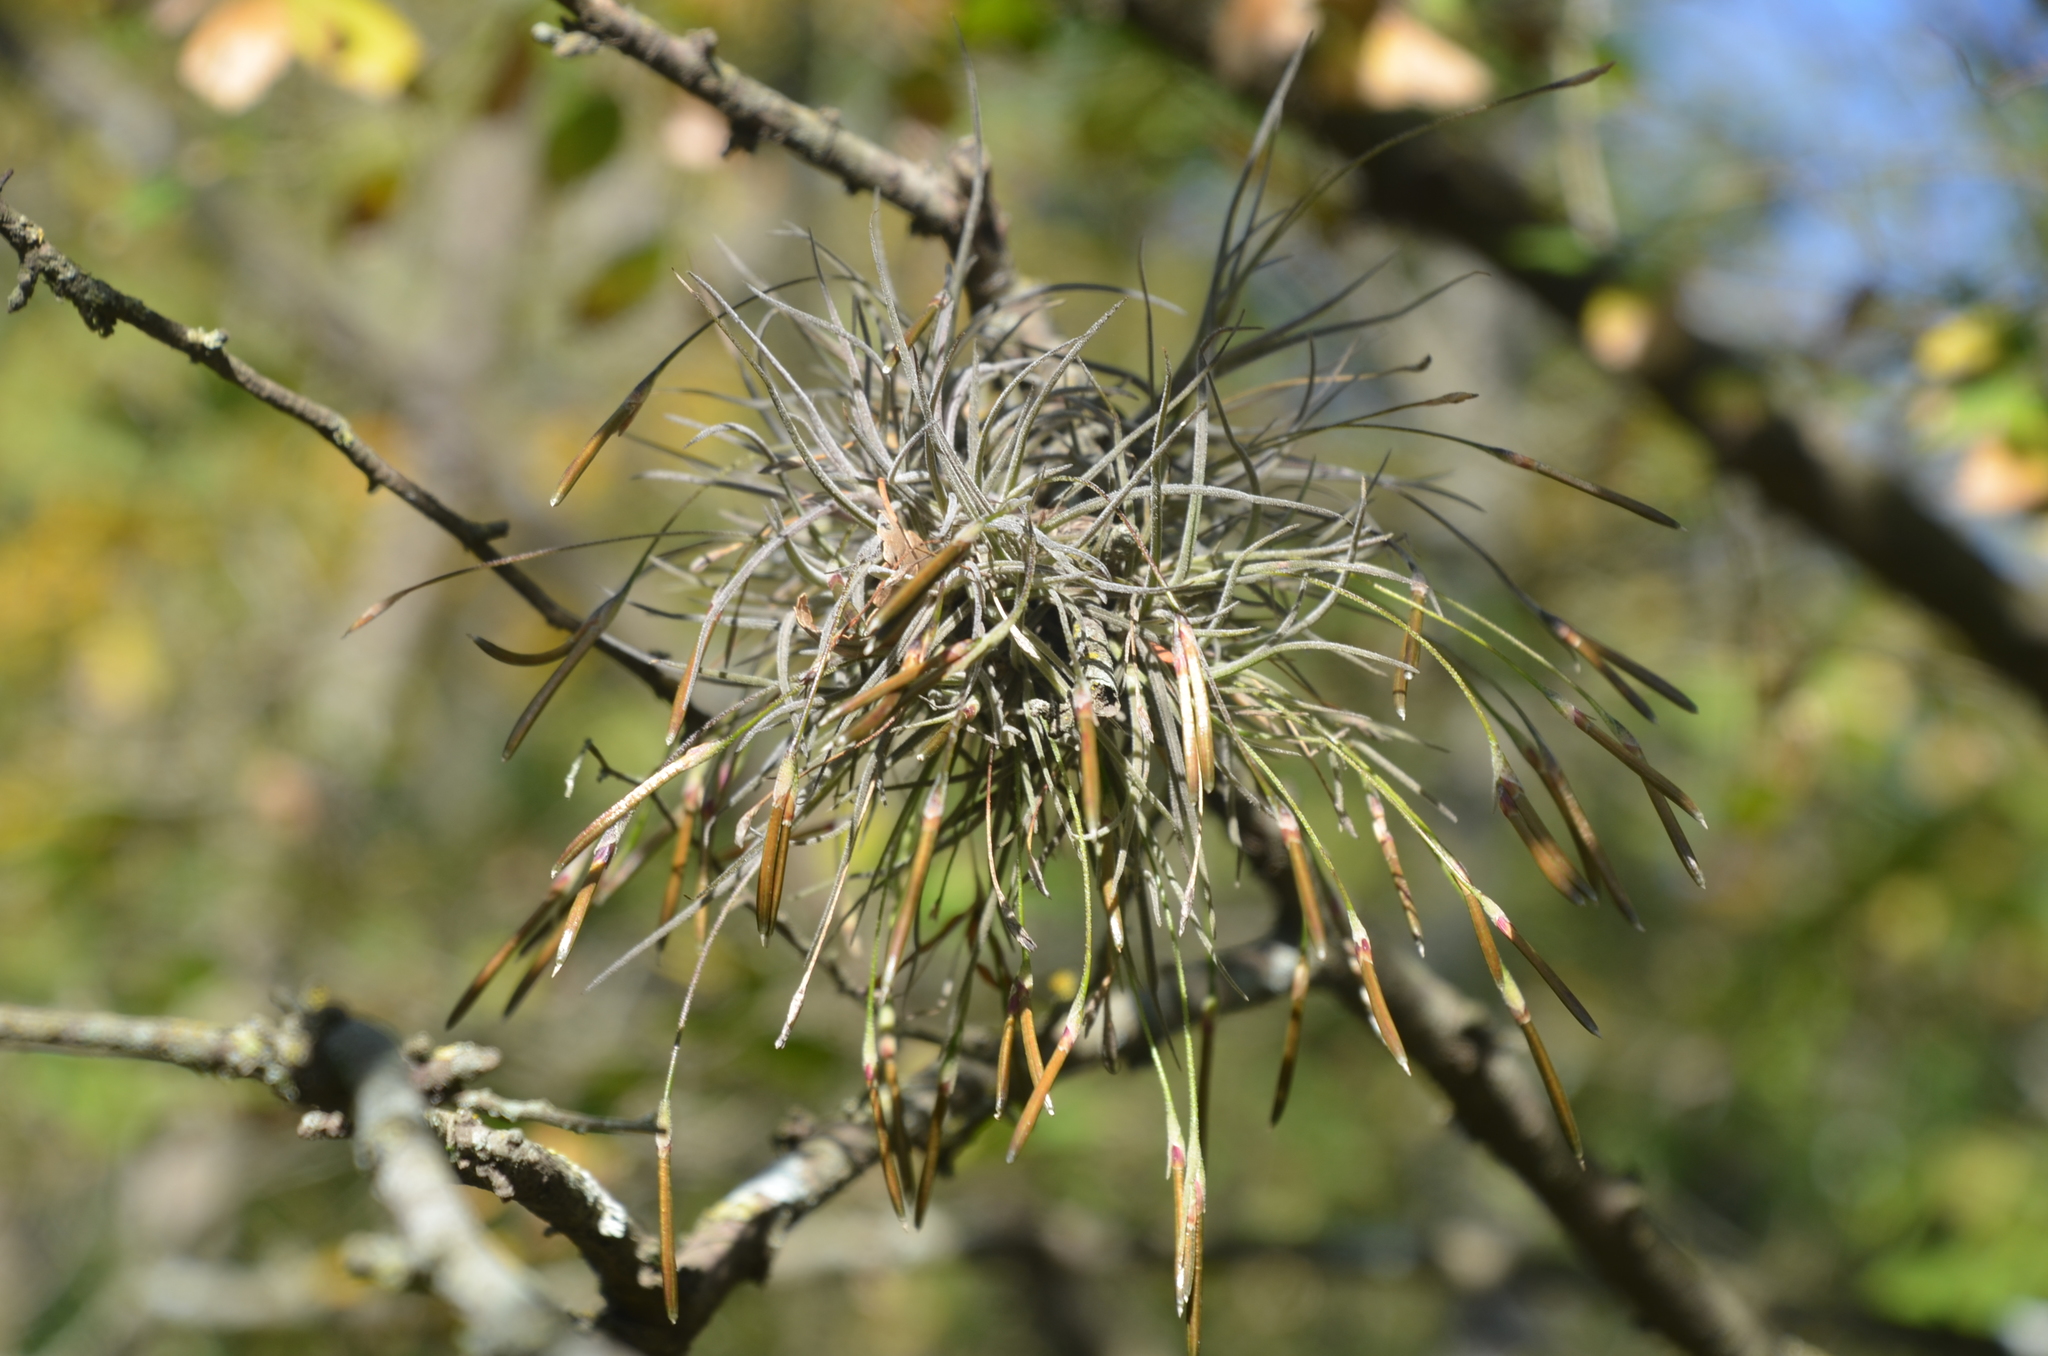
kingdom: Plantae
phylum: Tracheophyta
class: Liliopsida
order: Poales
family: Bromeliaceae
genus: Tillandsia
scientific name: Tillandsia recurvata
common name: Small ballmoss
